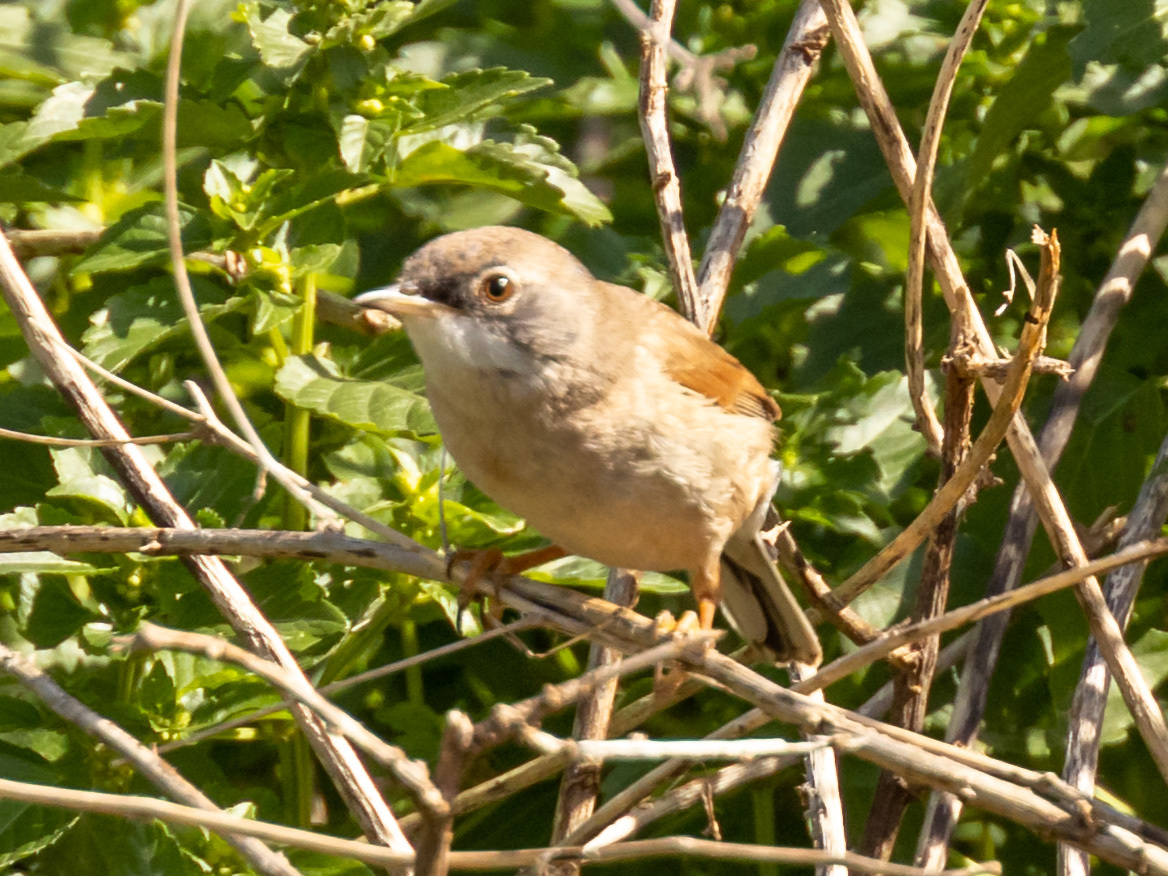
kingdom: Animalia
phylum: Chordata
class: Aves
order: Passeriformes
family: Sylviidae
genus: Sylvia
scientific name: Sylvia conspicillata
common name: Spectacled warbler
